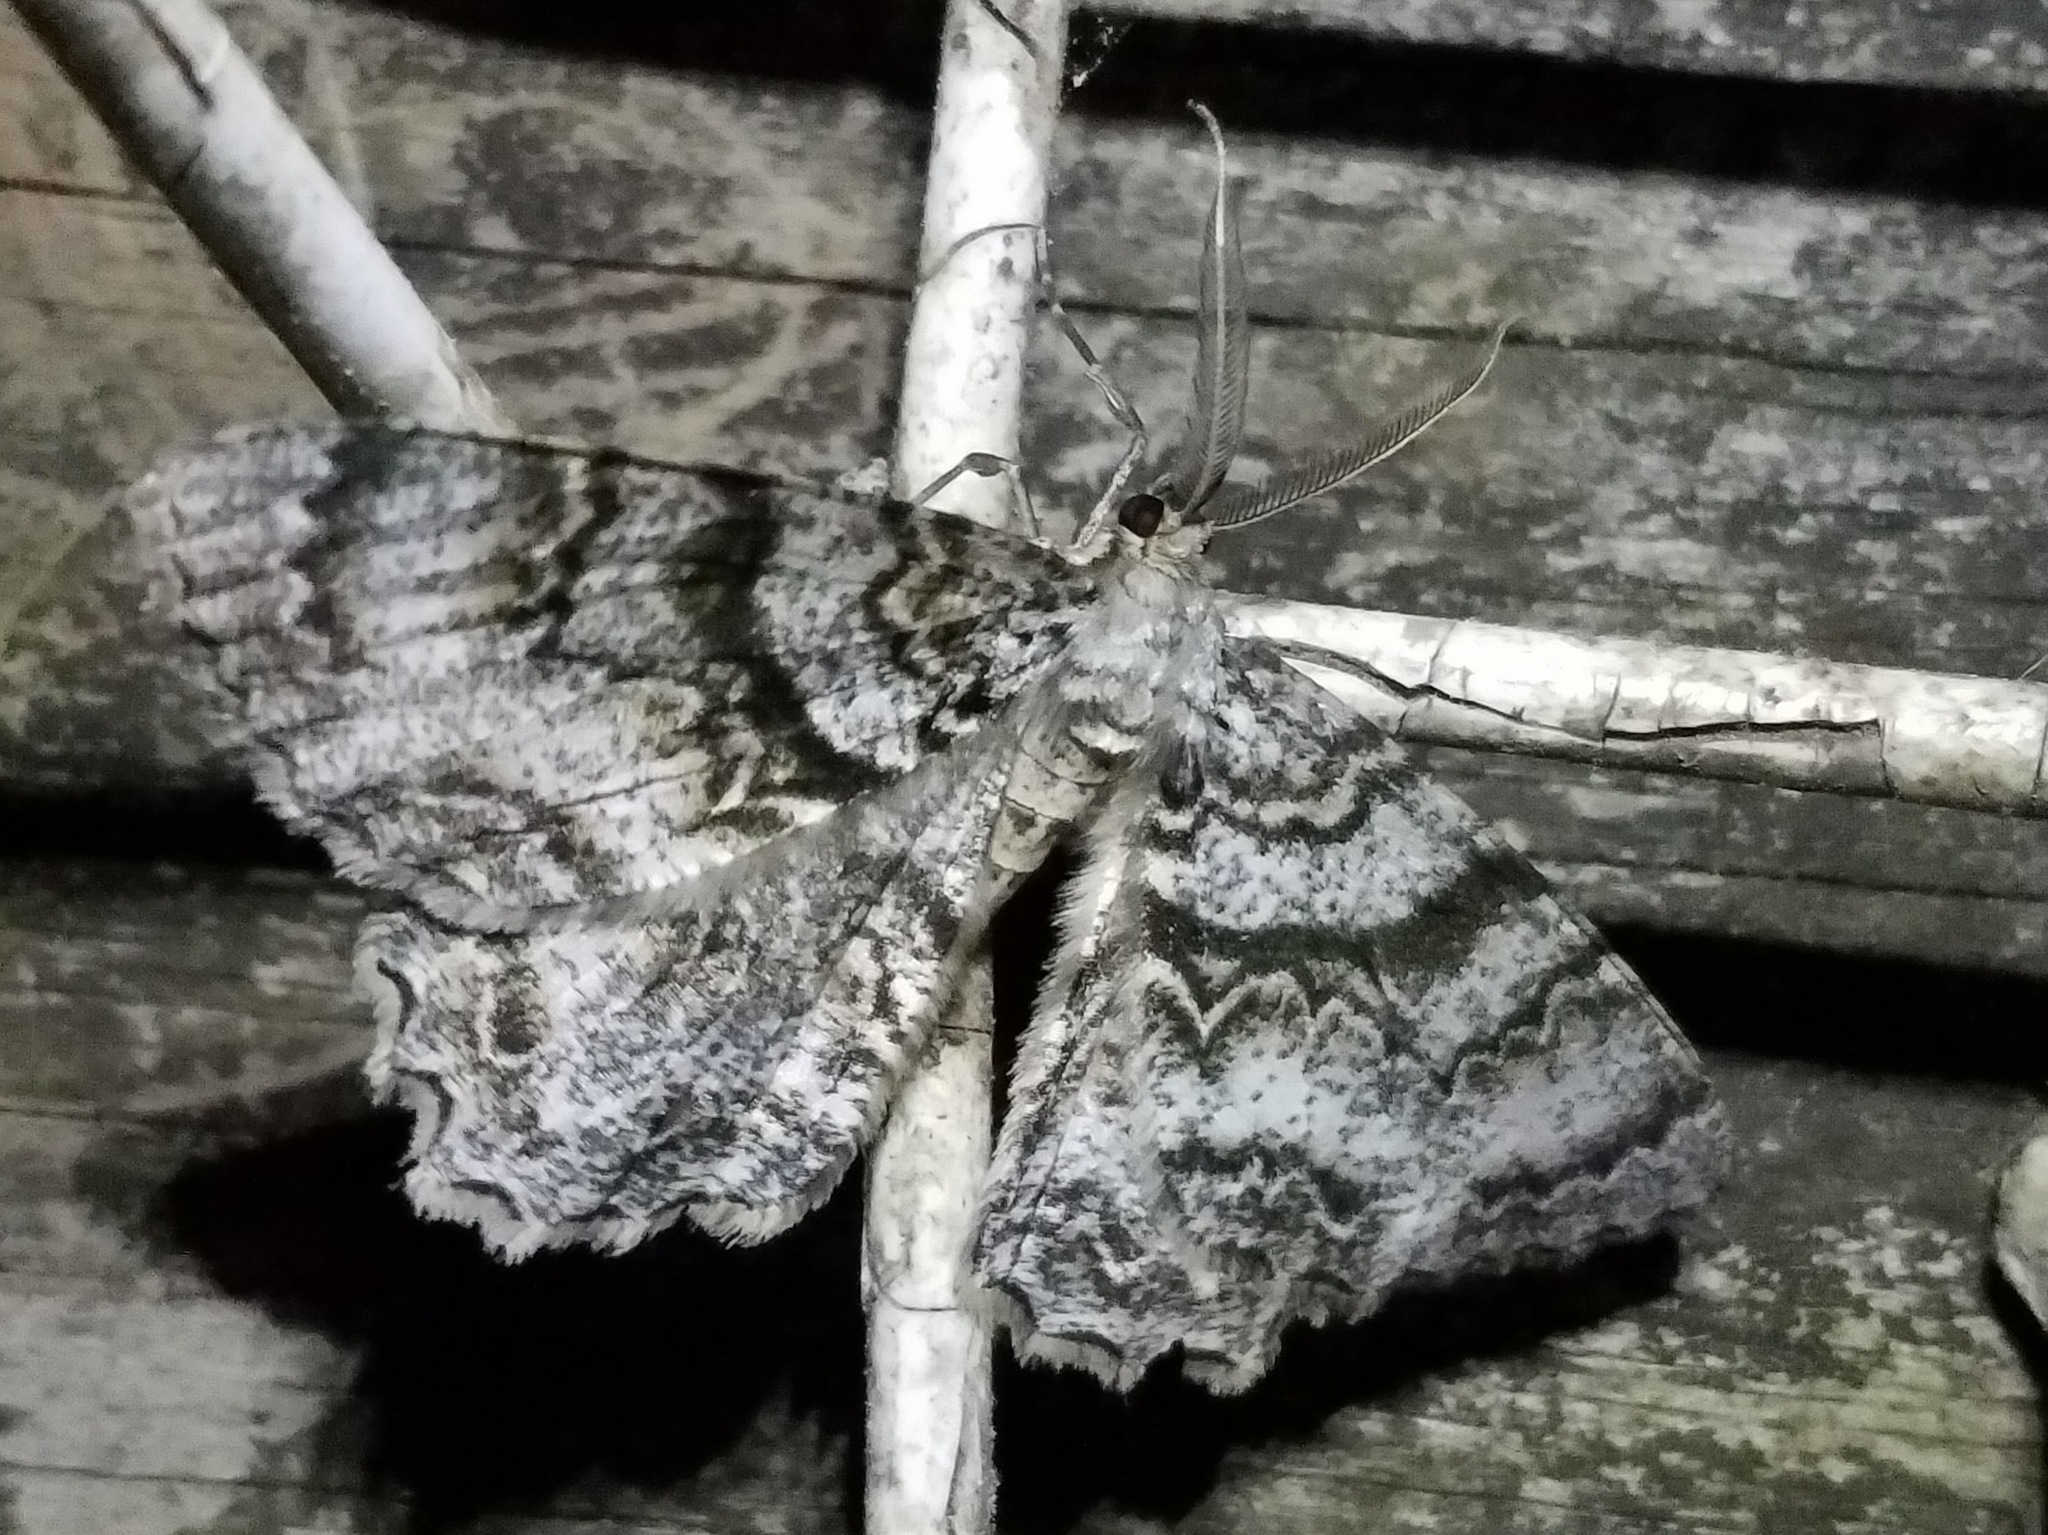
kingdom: Animalia
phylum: Arthropoda
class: Insecta
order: Lepidoptera
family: Geometridae
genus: Epimecis
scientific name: Epimecis hortaria
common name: Tulip-tree beauty
